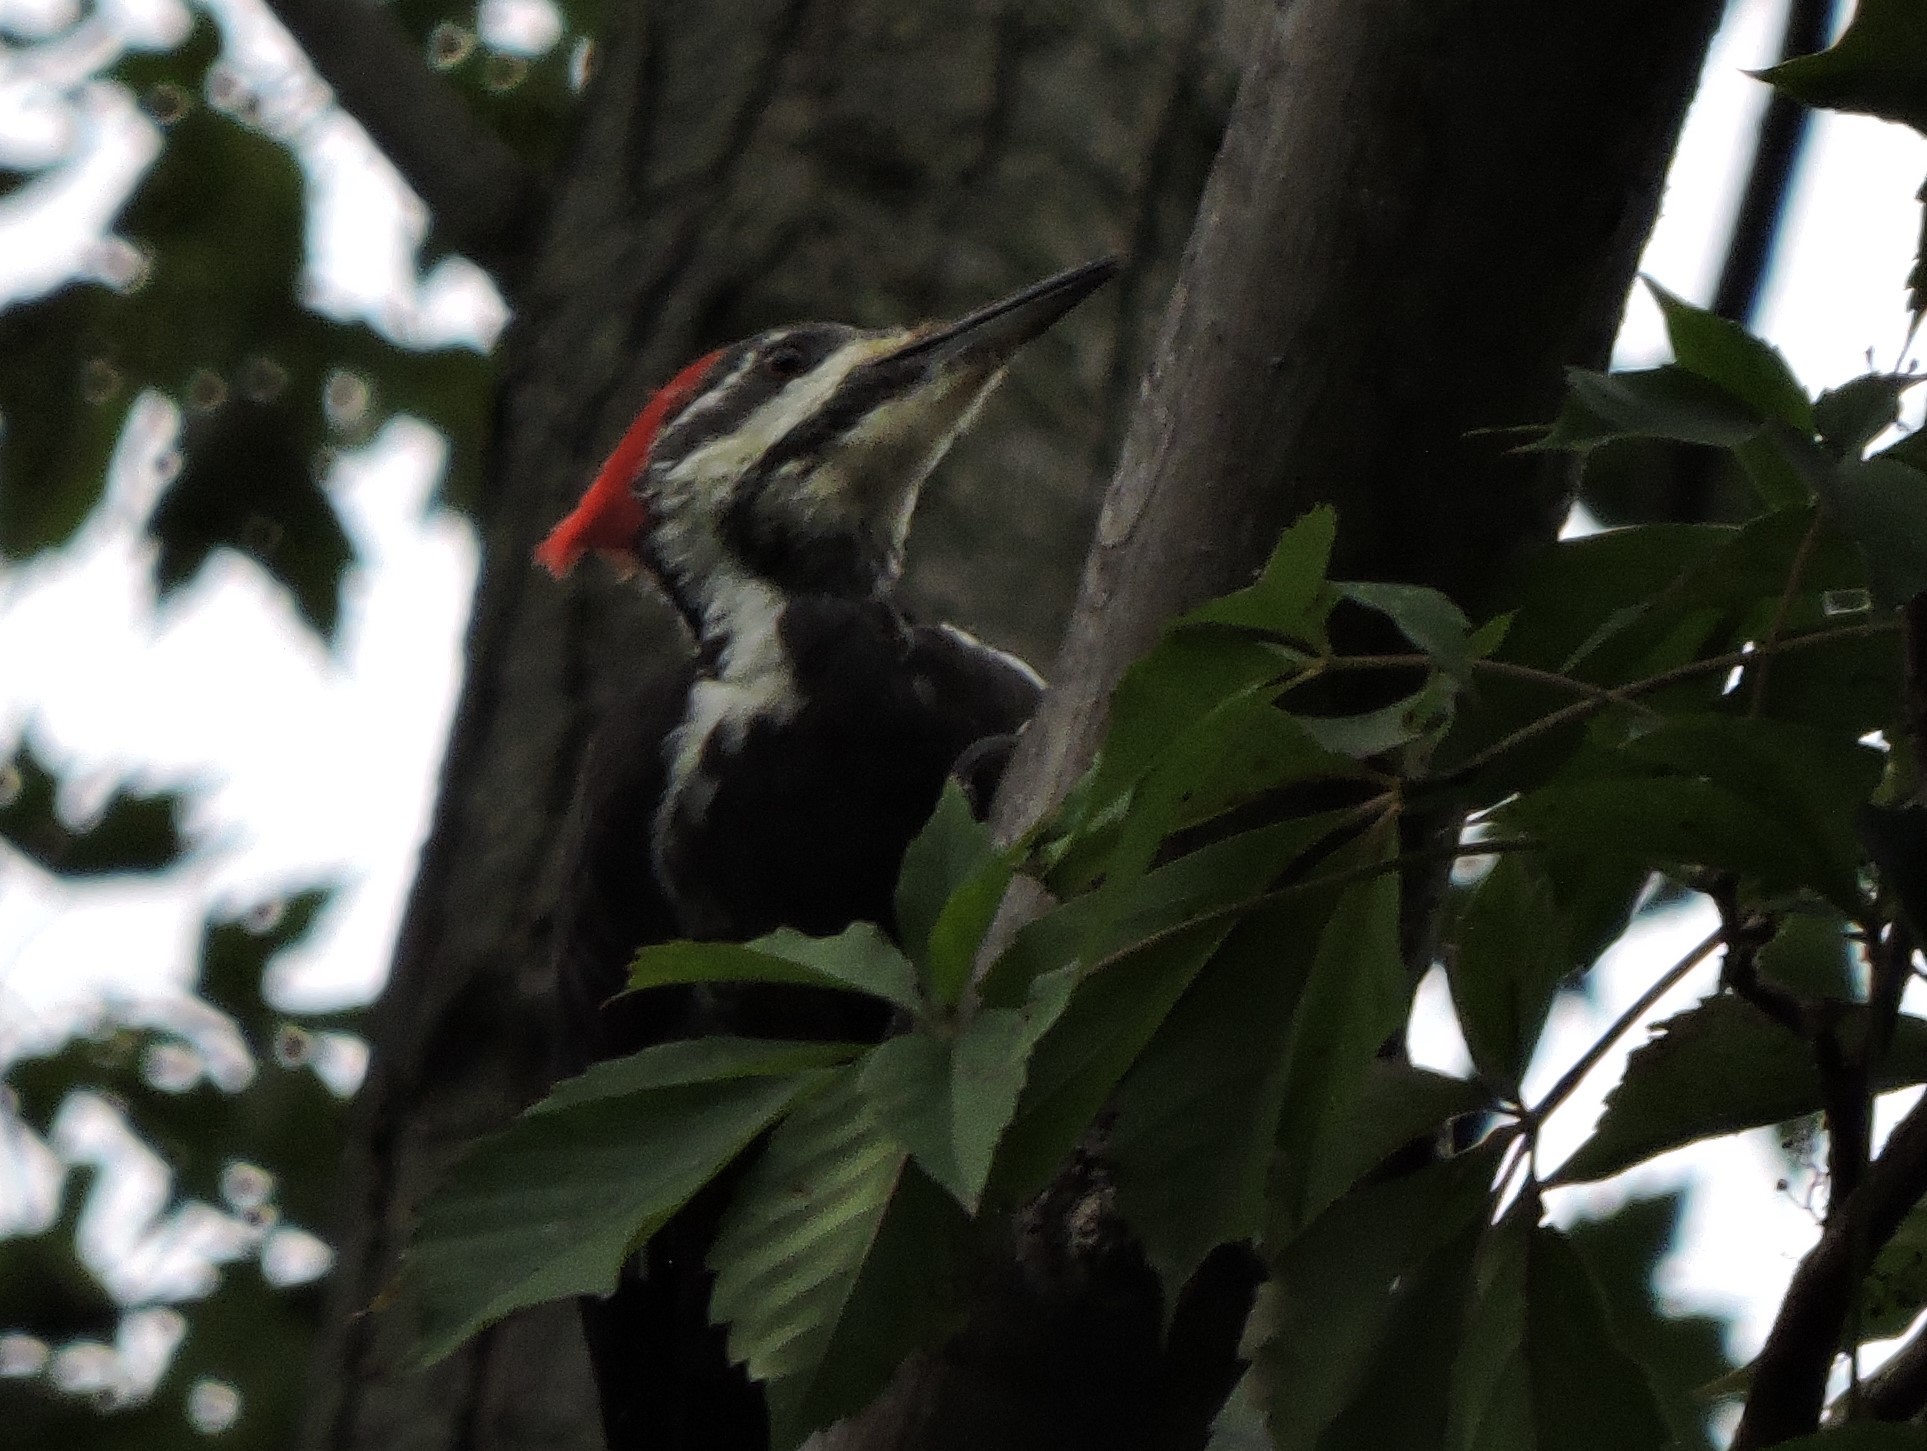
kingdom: Animalia
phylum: Chordata
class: Aves
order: Piciformes
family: Picidae
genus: Dryocopus
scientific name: Dryocopus pileatus
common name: Pileated woodpecker
